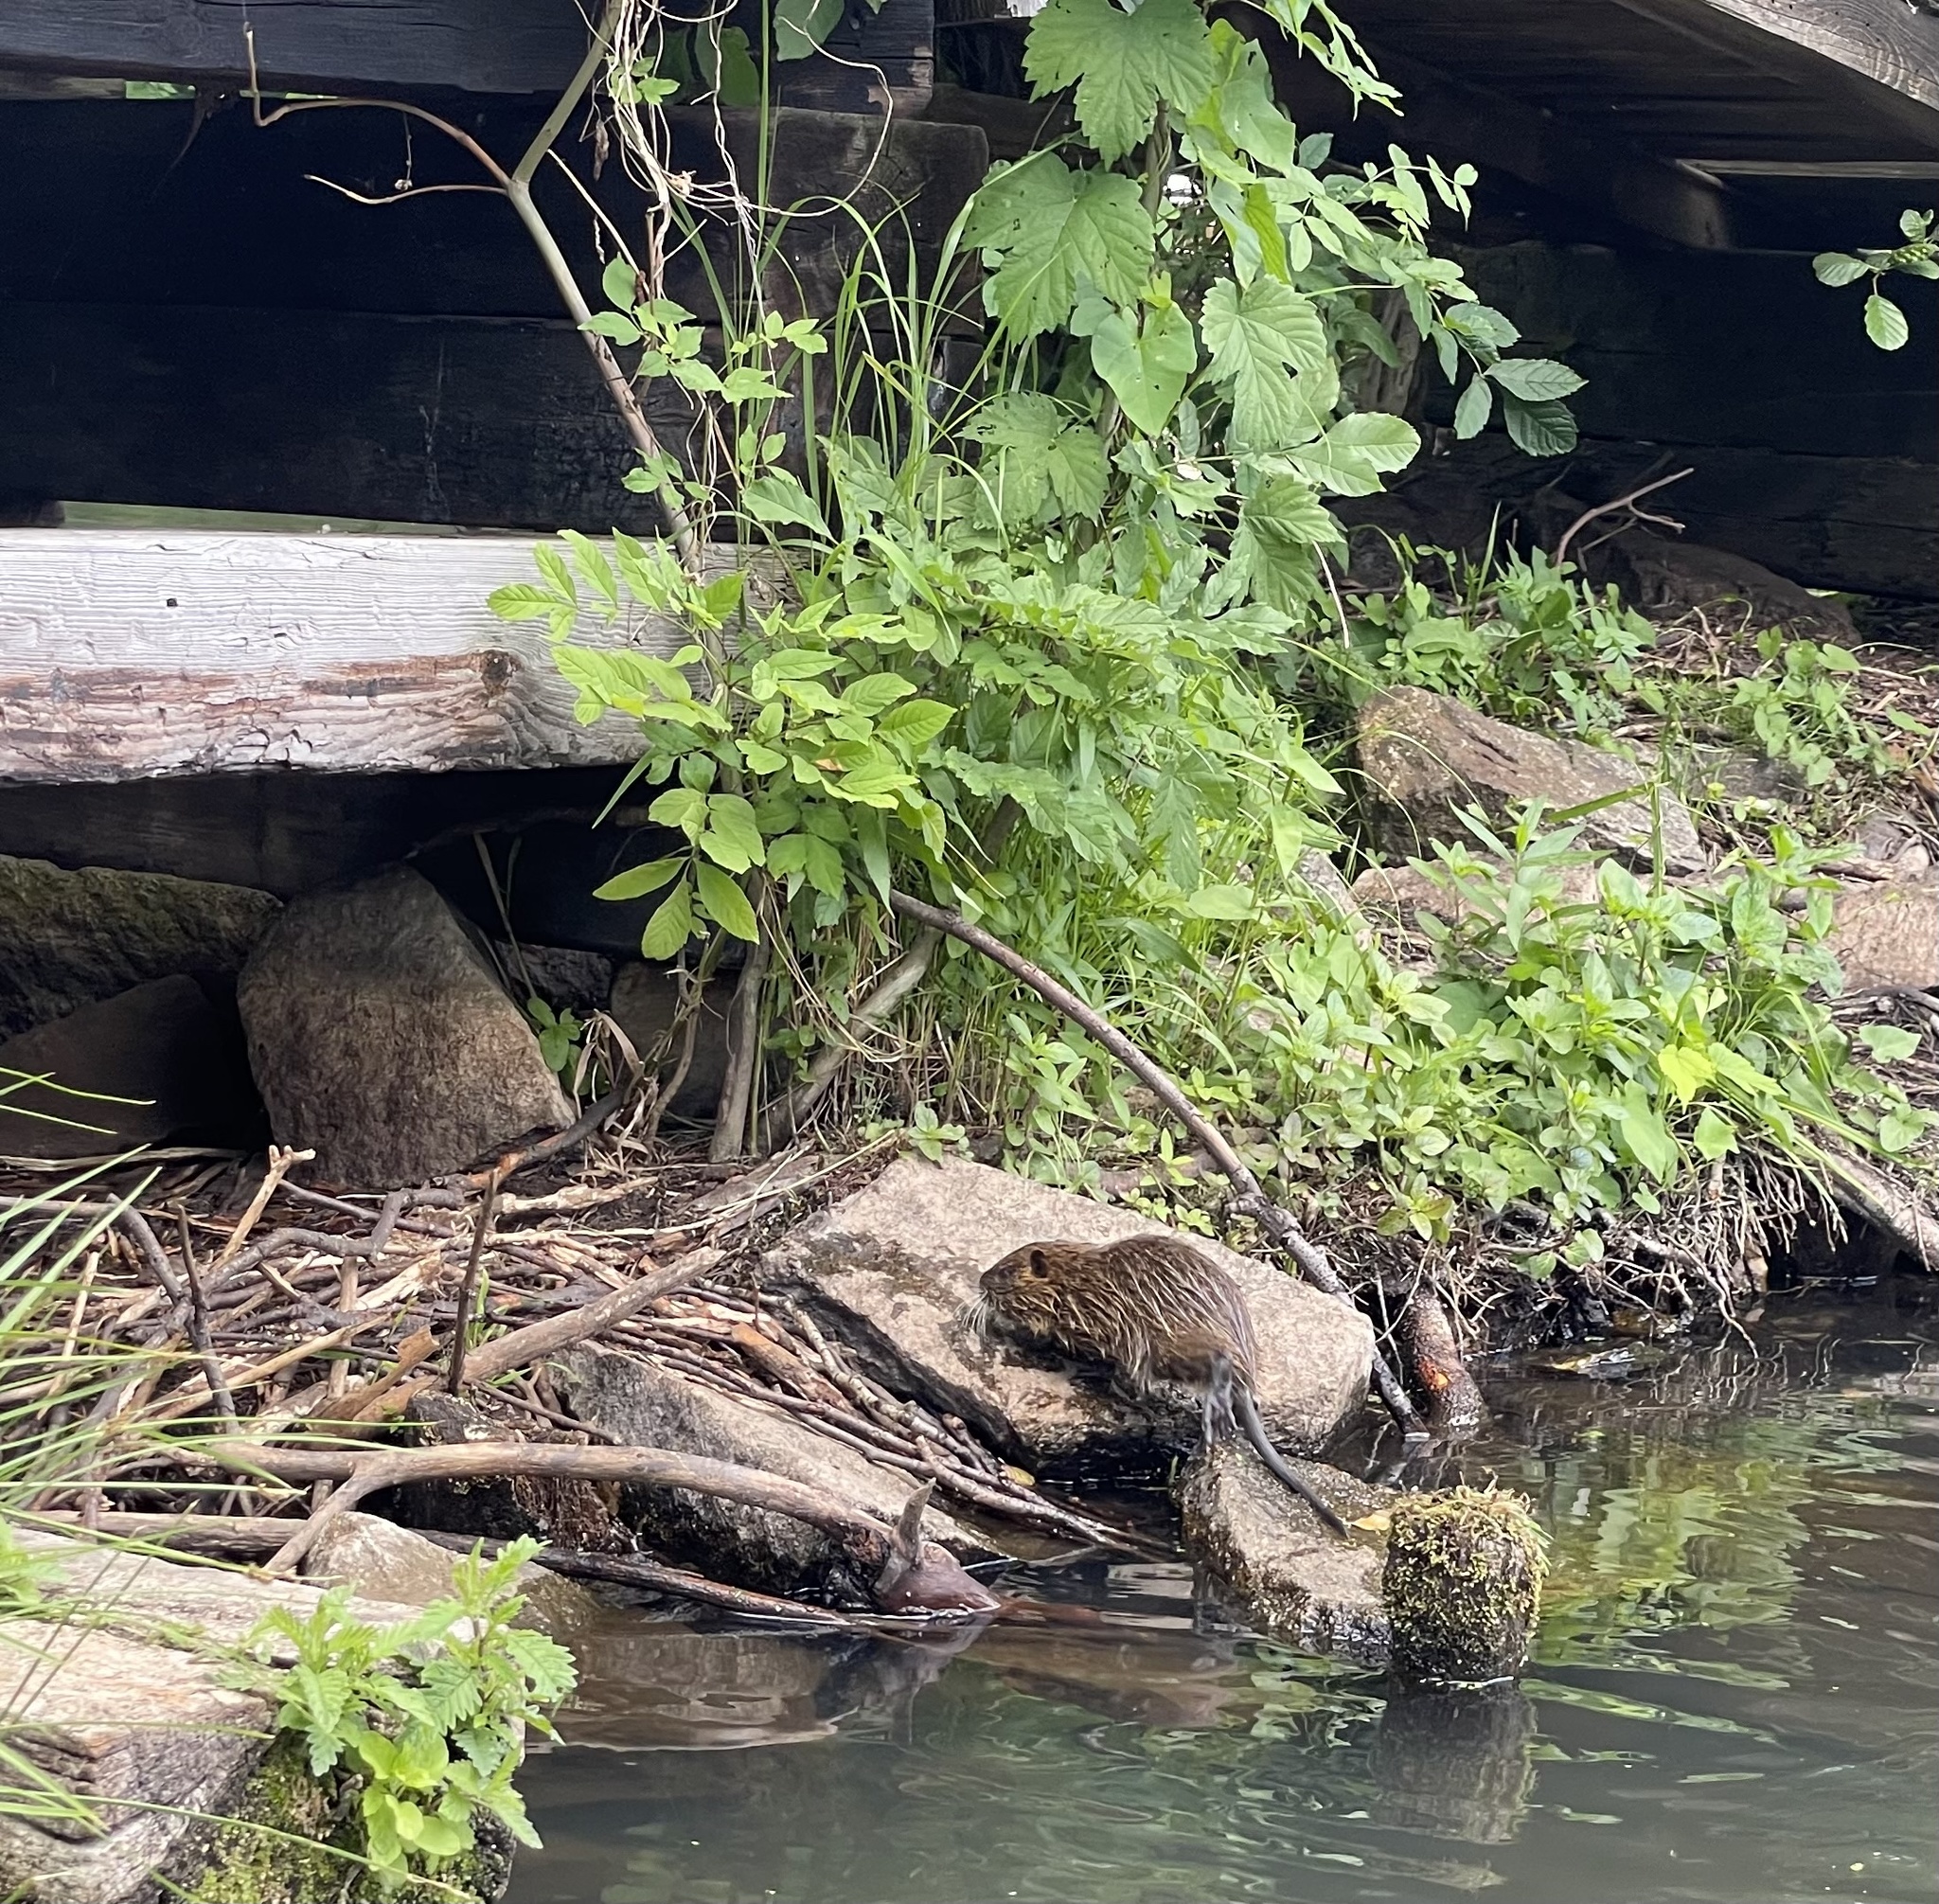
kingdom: Animalia
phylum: Chordata
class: Mammalia
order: Rodentia
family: Myocastoridae
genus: Myocastor
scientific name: Myocastor coypus
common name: Coypu
